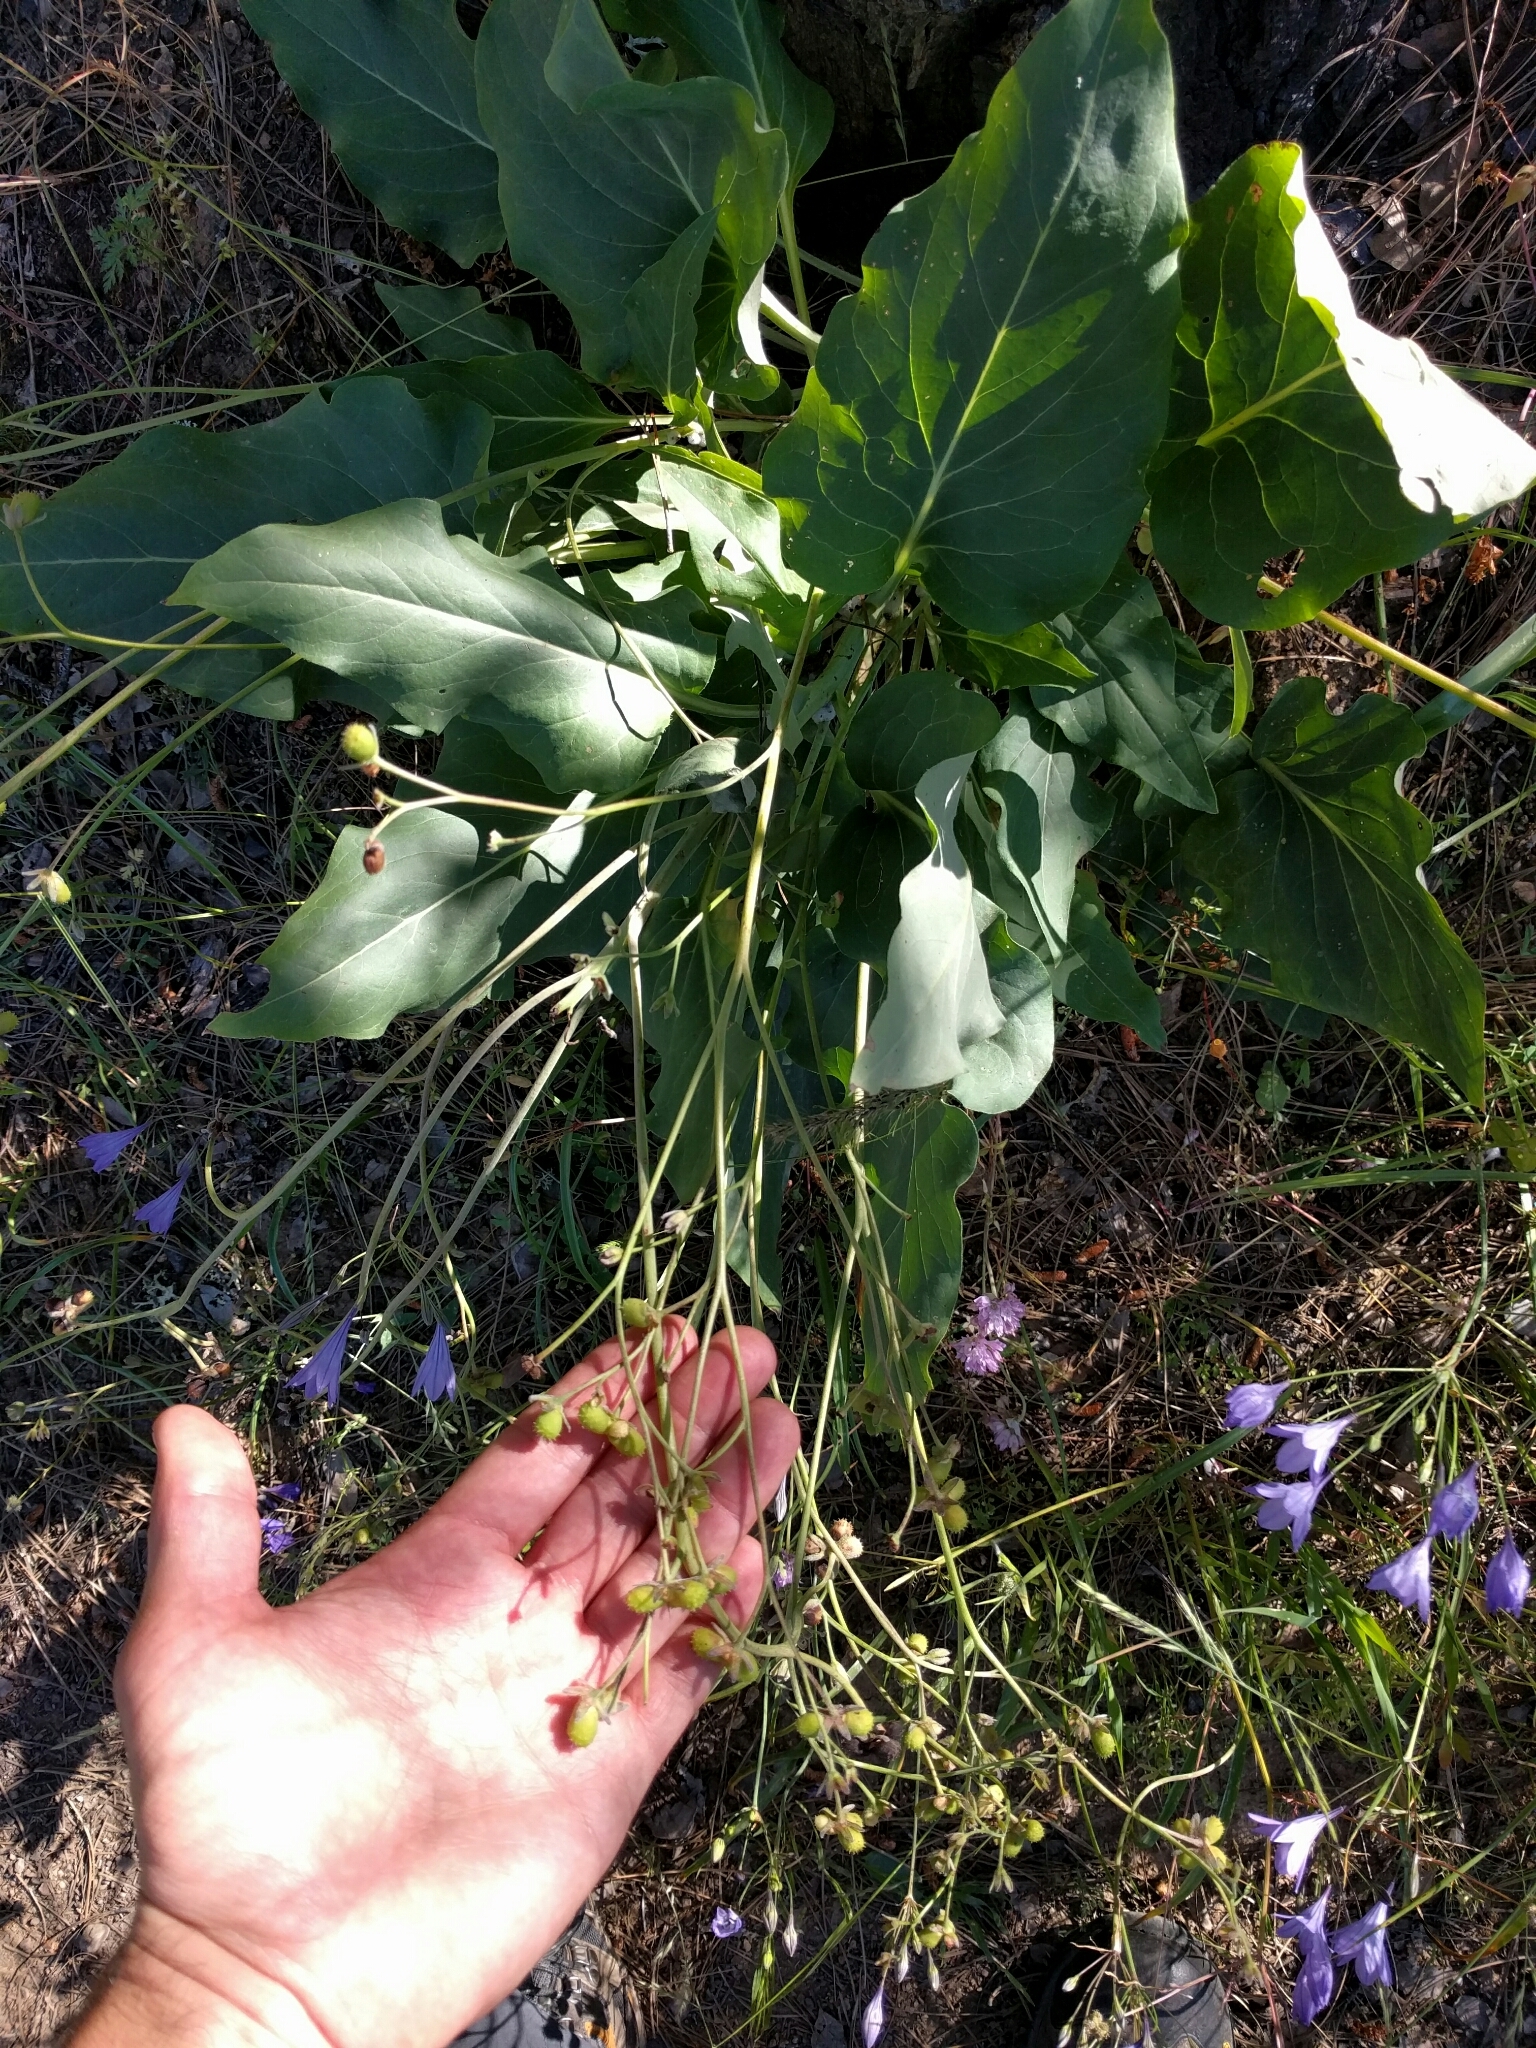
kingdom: Plantae
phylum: Tracheophyta
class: Magnoliopsida
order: Boraginales
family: Boraginaceae
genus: Adelinia
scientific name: Adelinia grande
